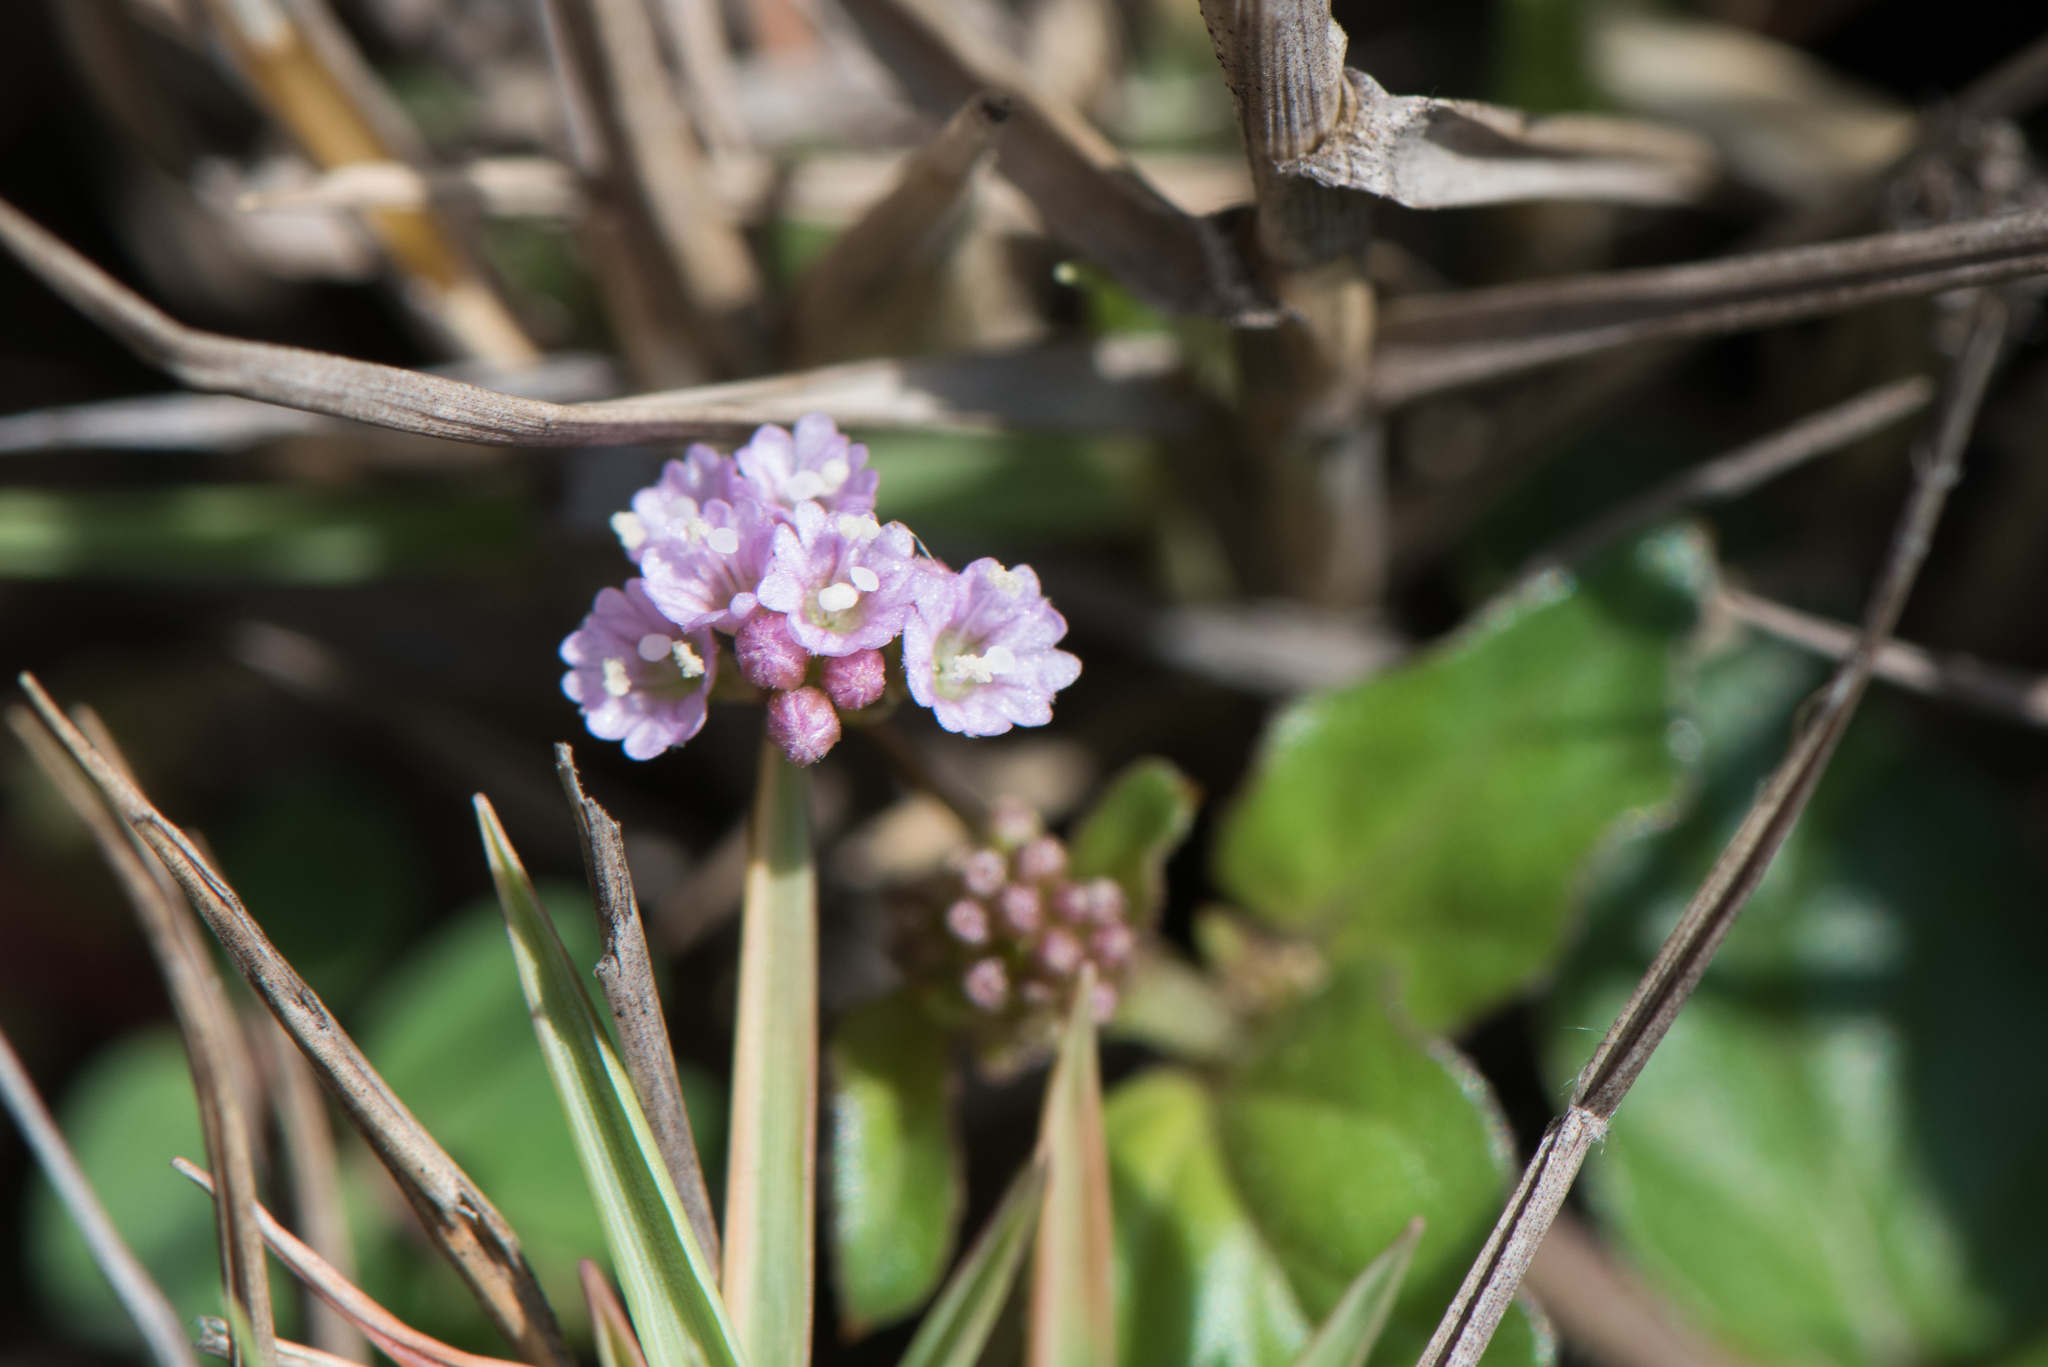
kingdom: Plantae
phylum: Tracheophyta
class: Magnoliopsida
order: Caryophyllales
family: Nyctaginaceae
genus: Boerhavia
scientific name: Boerhavia glabrata
